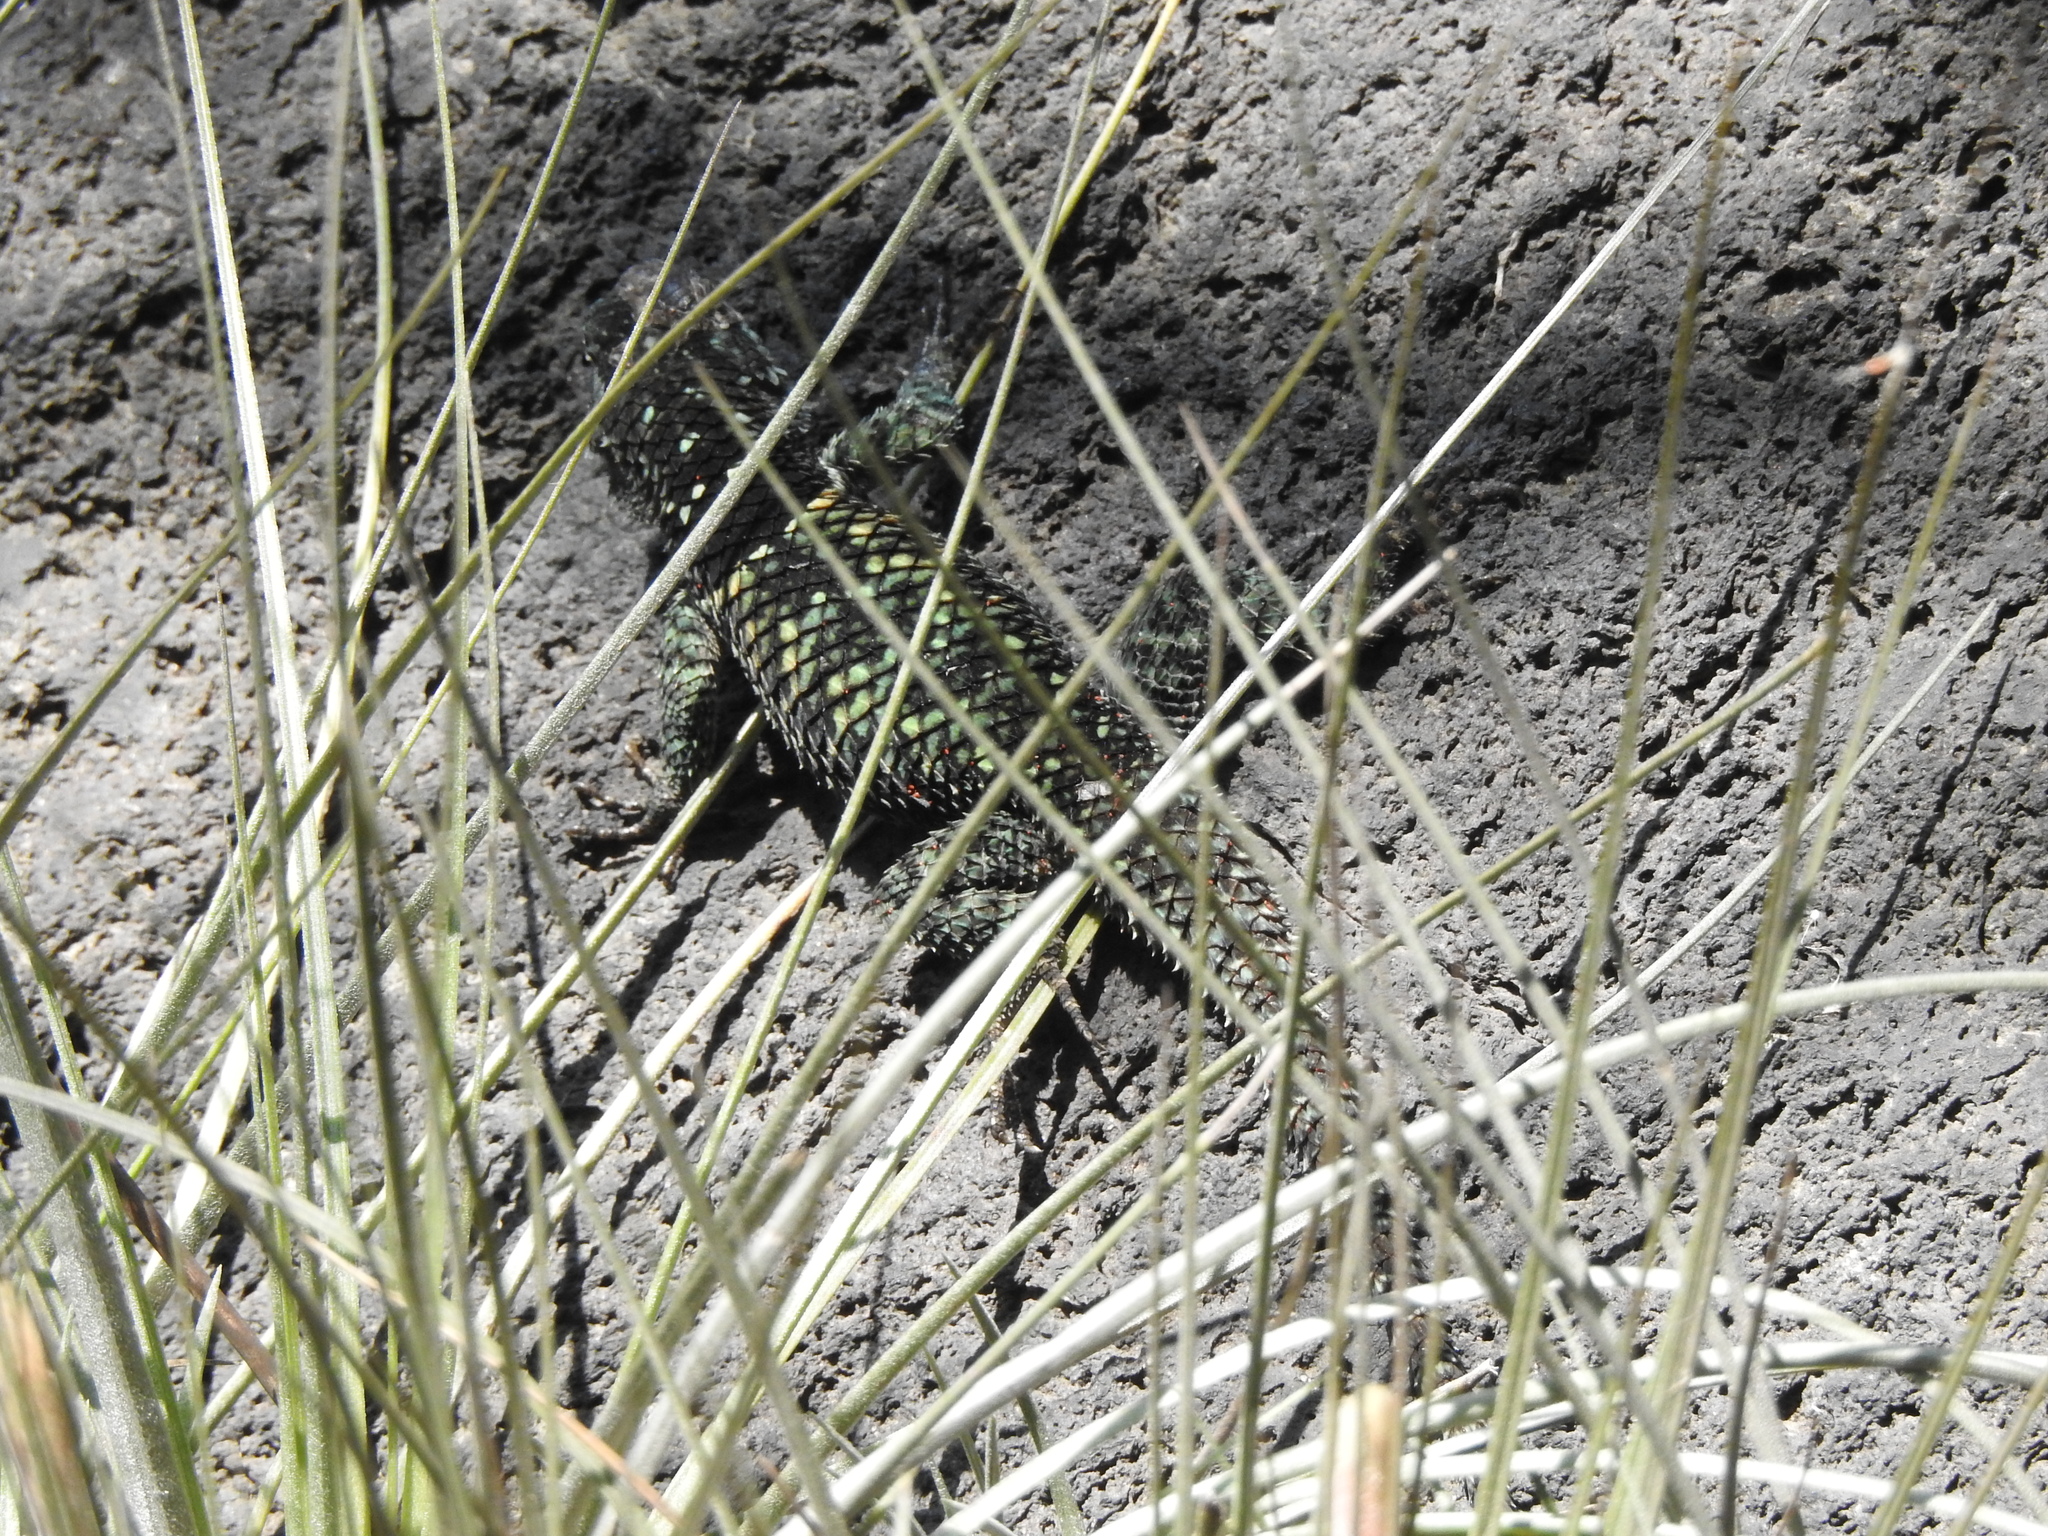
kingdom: Animalia
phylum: Chordata
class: Squamata
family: Phrynosomatidae
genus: Sceloporus
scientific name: Sceloporus torquatus
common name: Central plateau torquate lizard [melanogaster]
